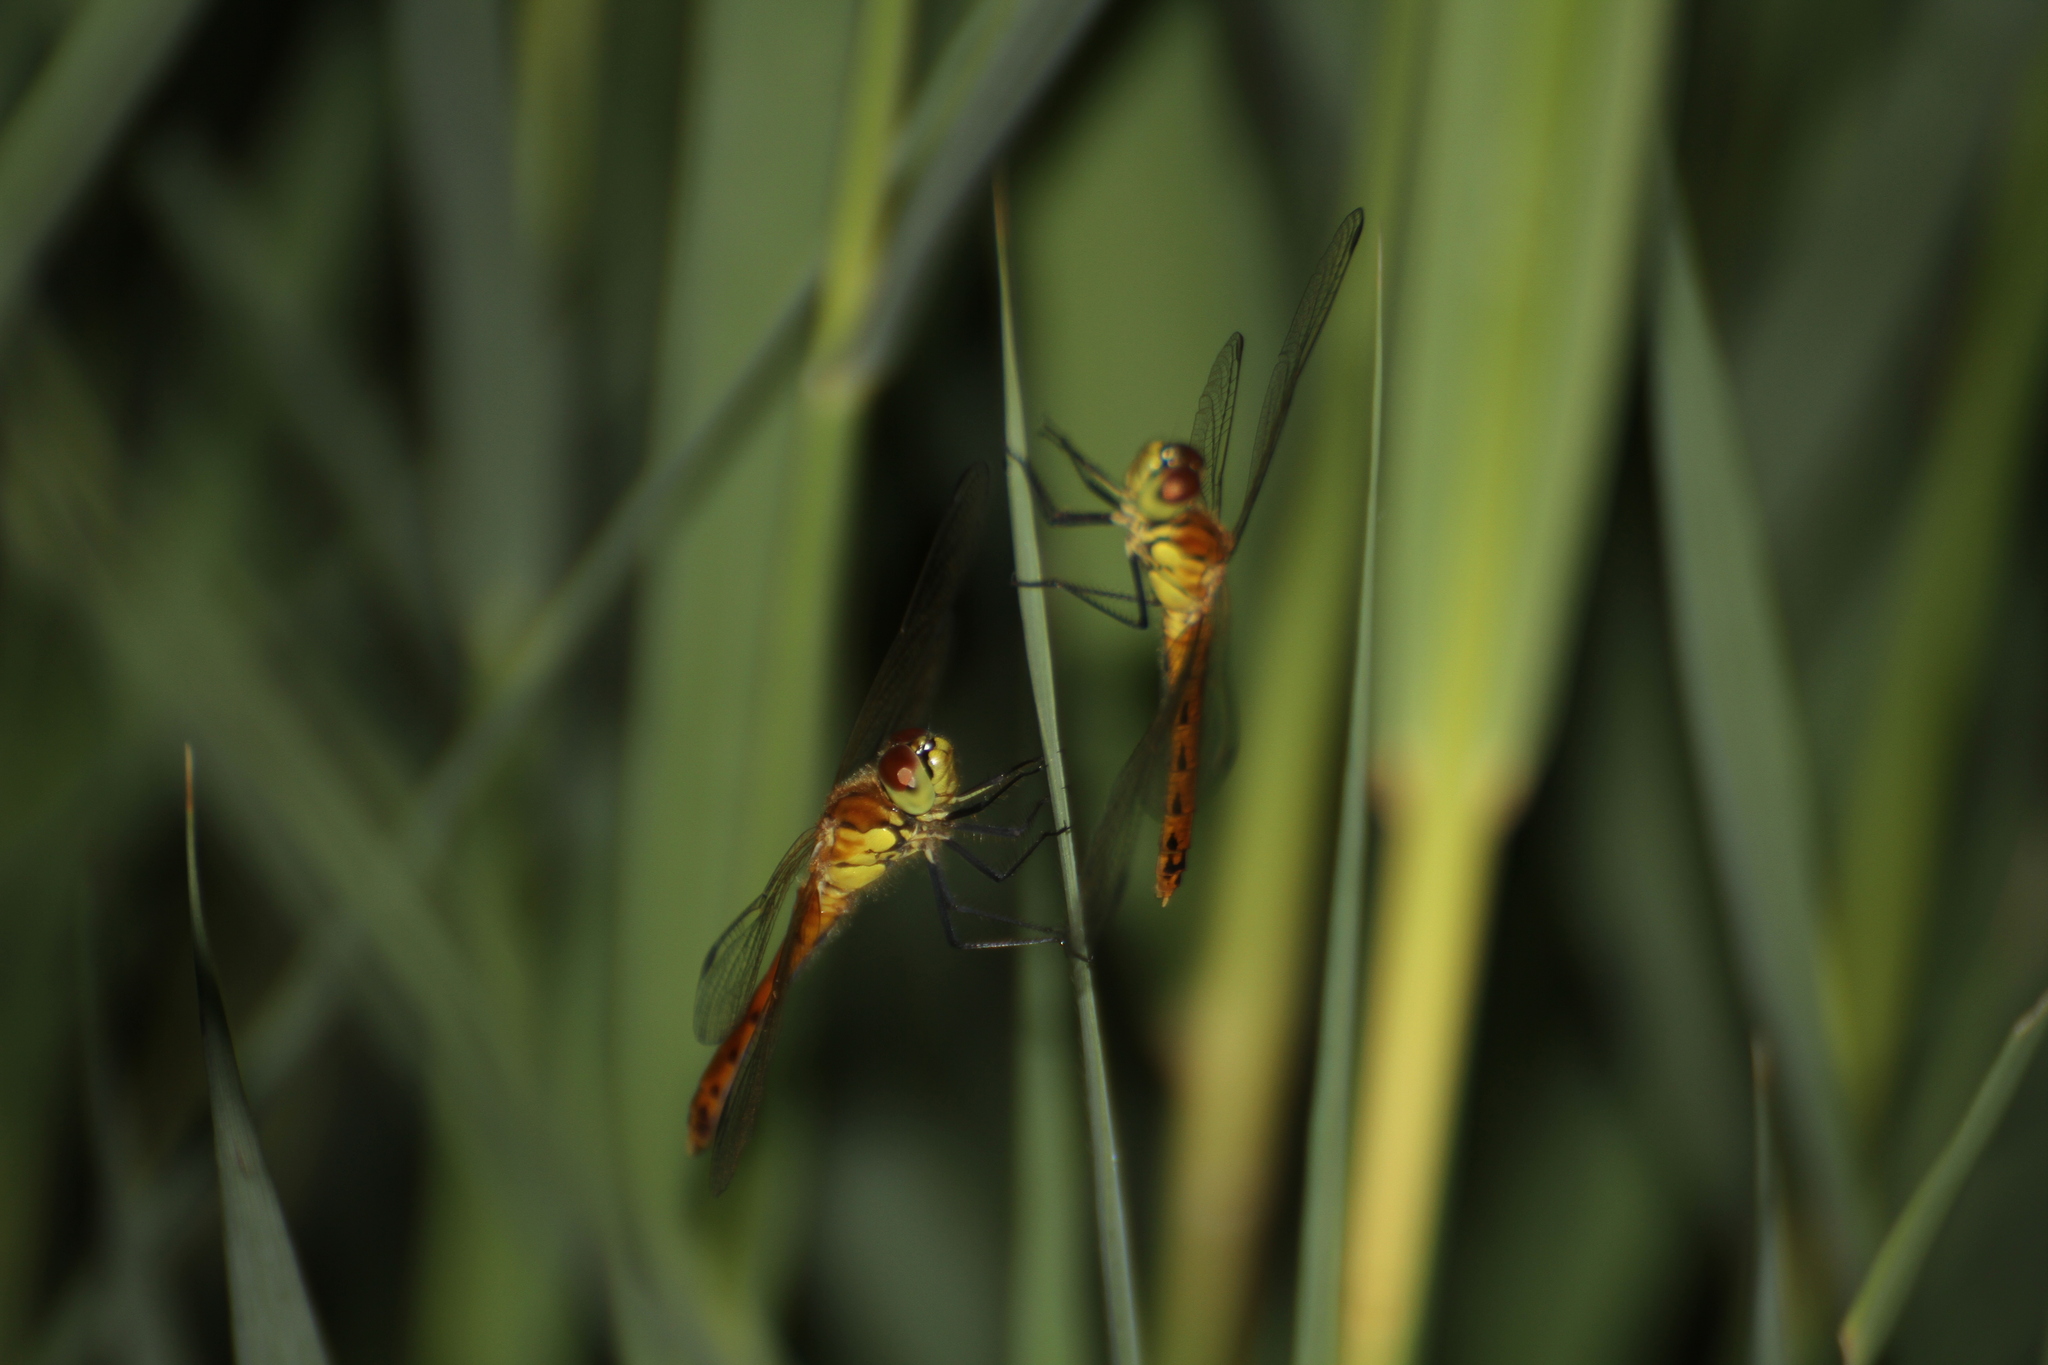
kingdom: Animalia
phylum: Arthropoda
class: Insecta
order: Odonata
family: Libellulidae
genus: Sympetrum
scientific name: Sympetrum depressiusculum
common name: Spotted darter
